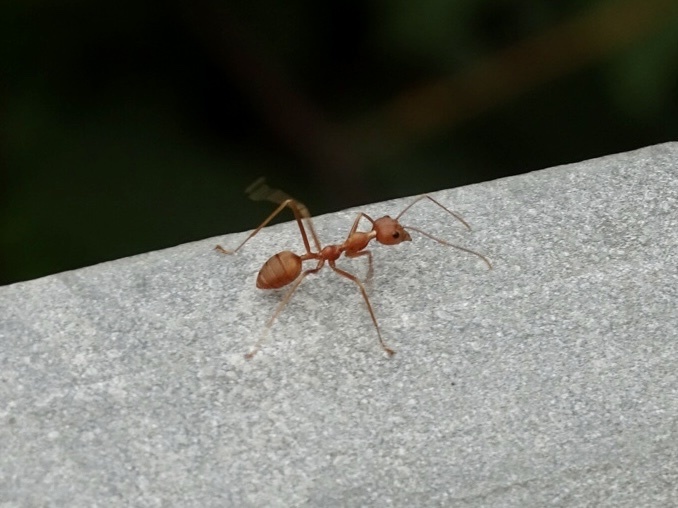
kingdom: Animalia
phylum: Arthropoda
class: Insecta
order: Hymenoptera
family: Formicidae
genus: Oecophylla
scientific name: Oecophylla smaragdina
